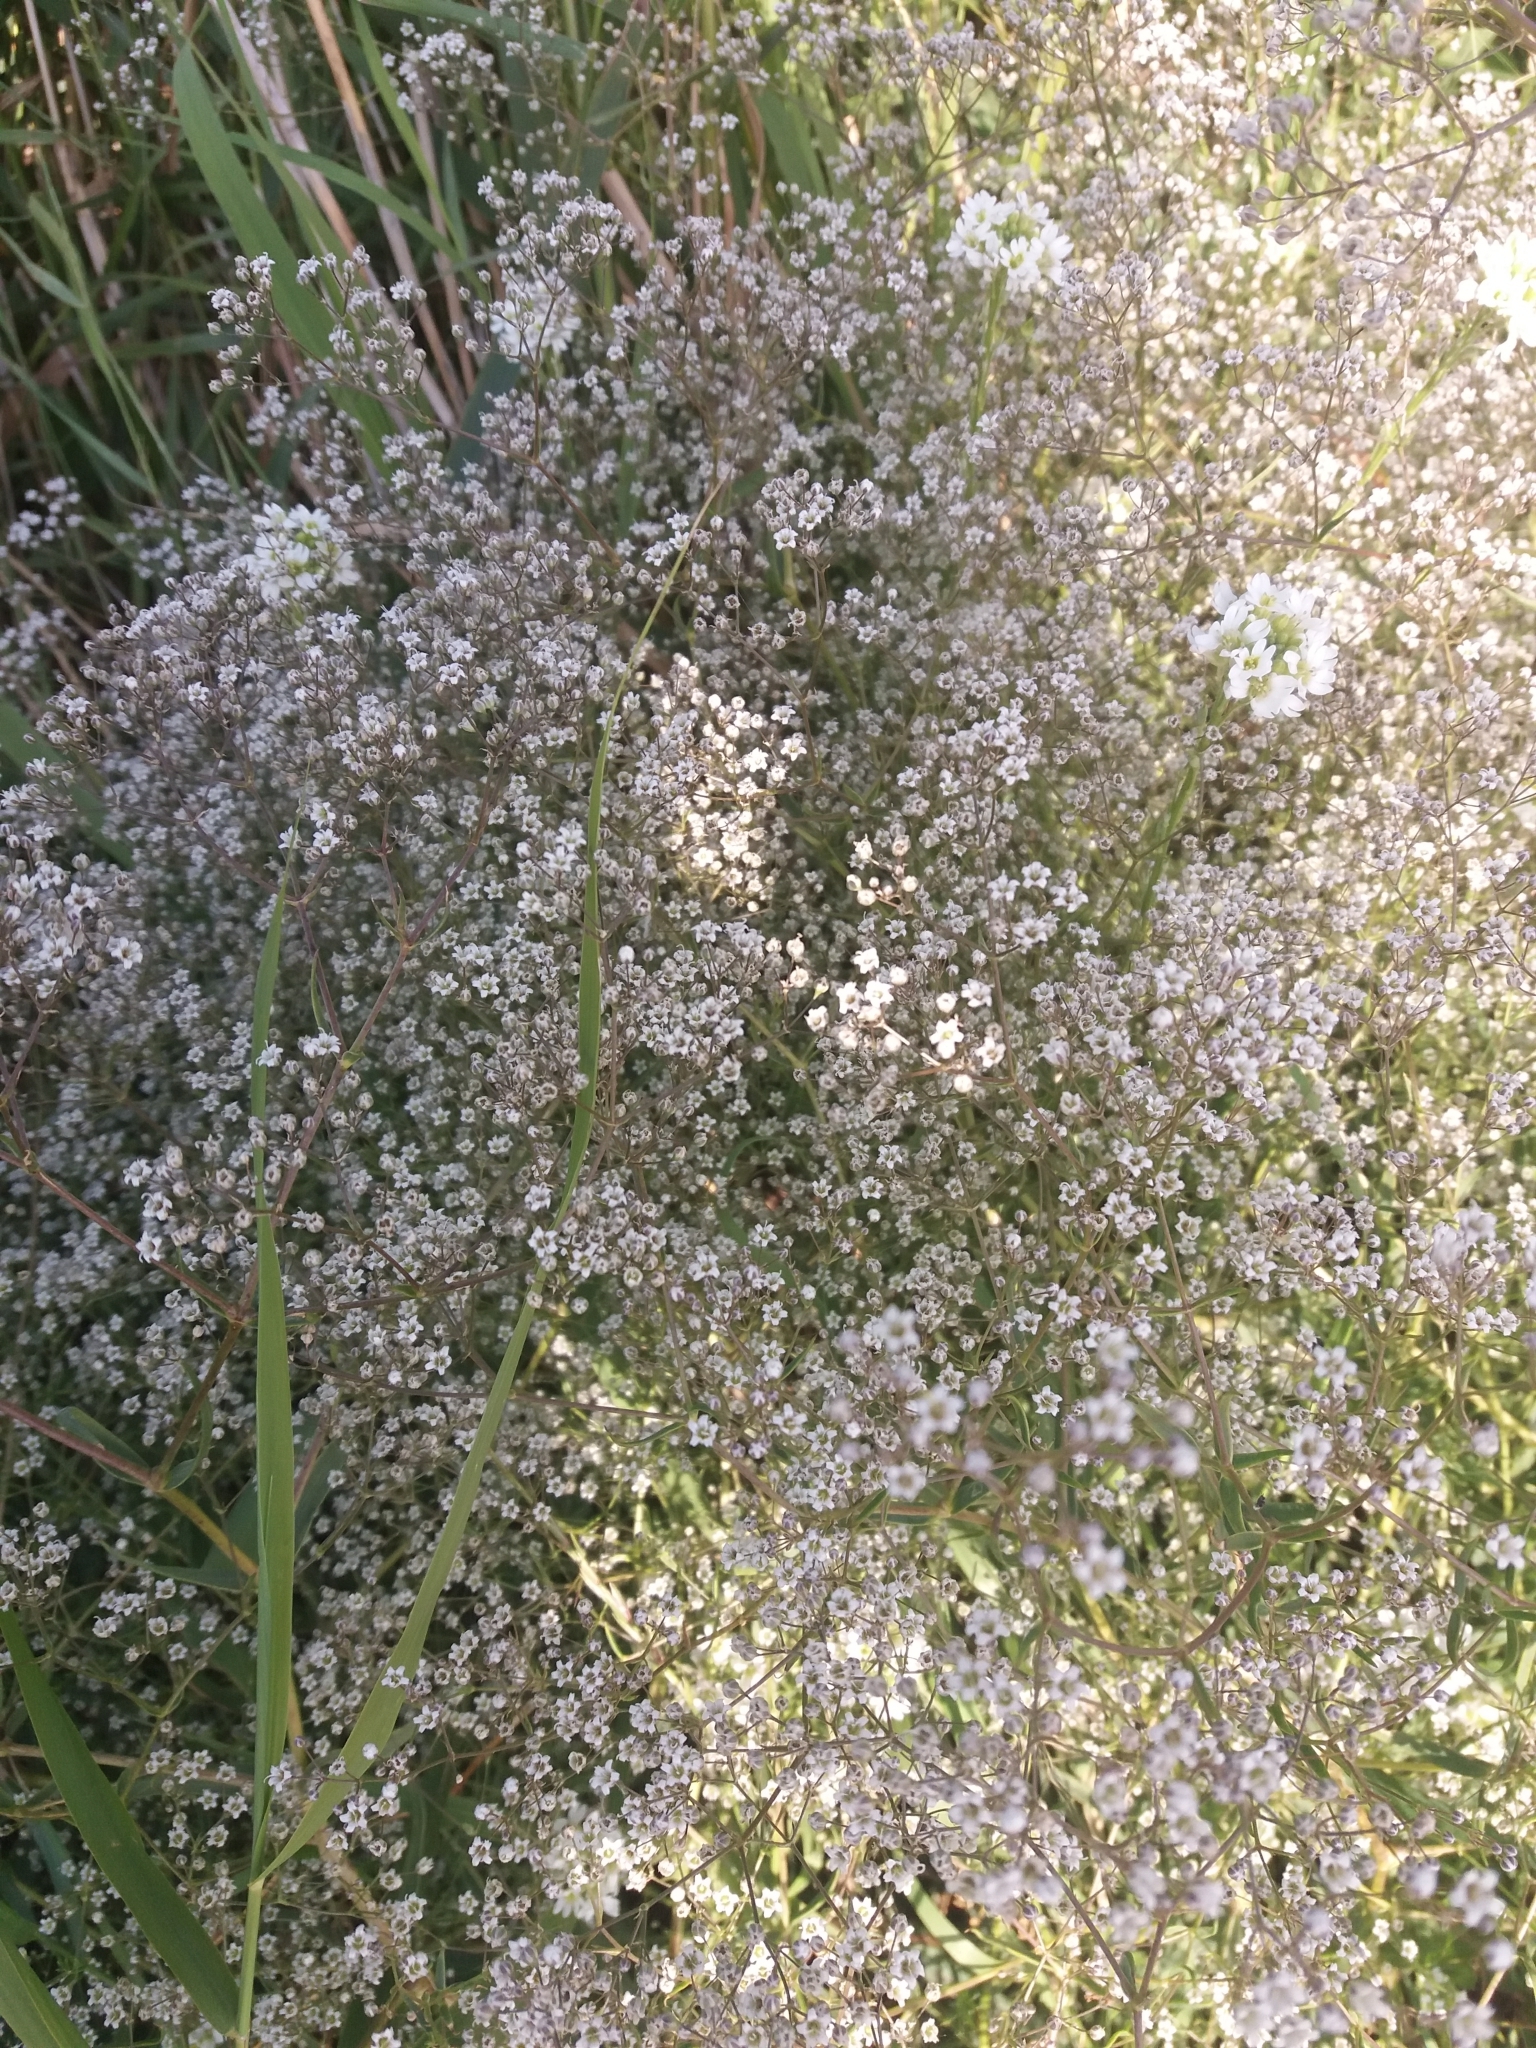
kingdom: Plantae
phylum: Tracheophyta
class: Magnoliopsida
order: Caryophyllales
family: Caryophyllaceae
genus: Gypsophila
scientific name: Gypsophila paniculata
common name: Baby's-breath
